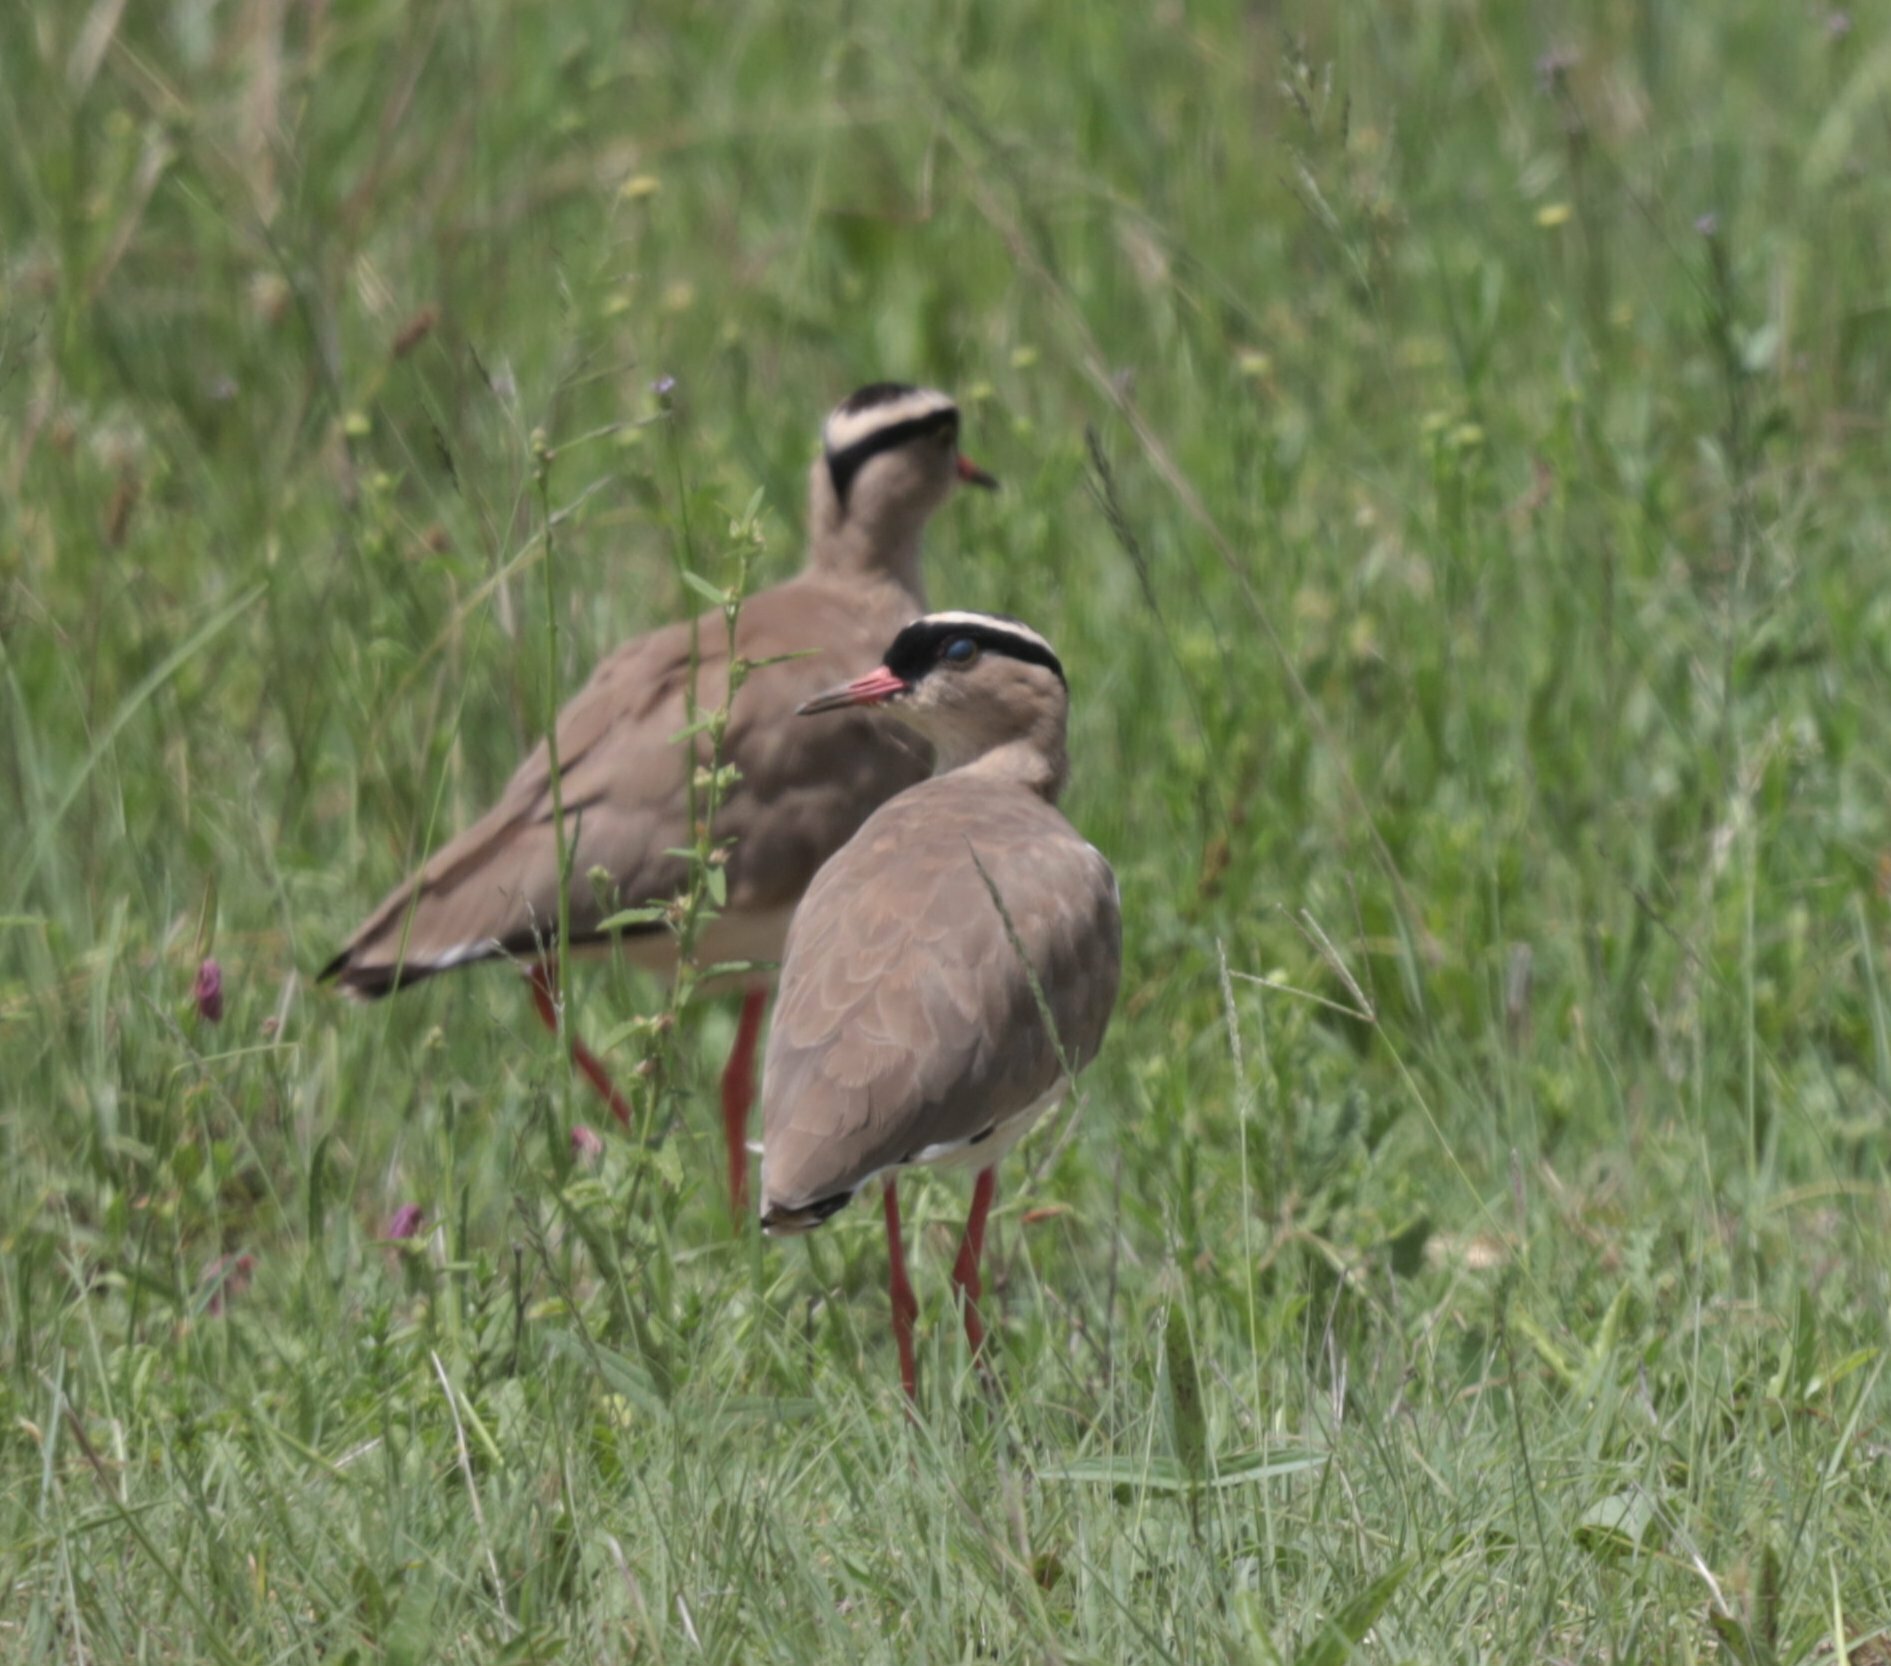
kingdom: Animalia
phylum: Chordata
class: Aves
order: Charadriiformes
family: Charadriidae
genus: Vanellus
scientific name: Vanellus coronatus
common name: Crowned lapwing
